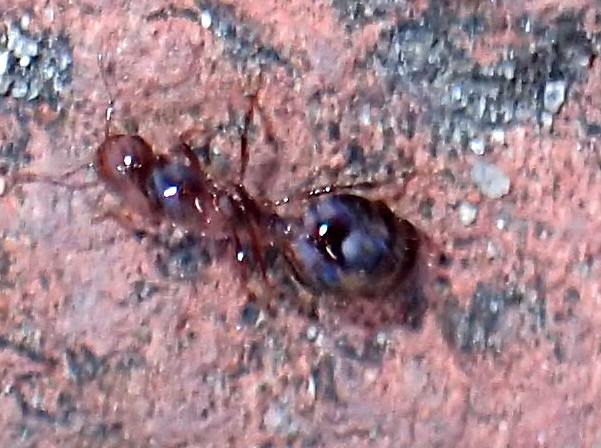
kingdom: Animalia
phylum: Arthropoda
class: Insecta
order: Hymenoptera
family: Formicidae
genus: Solenopsis
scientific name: Solenopsis invicta
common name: Red imported fire ant
